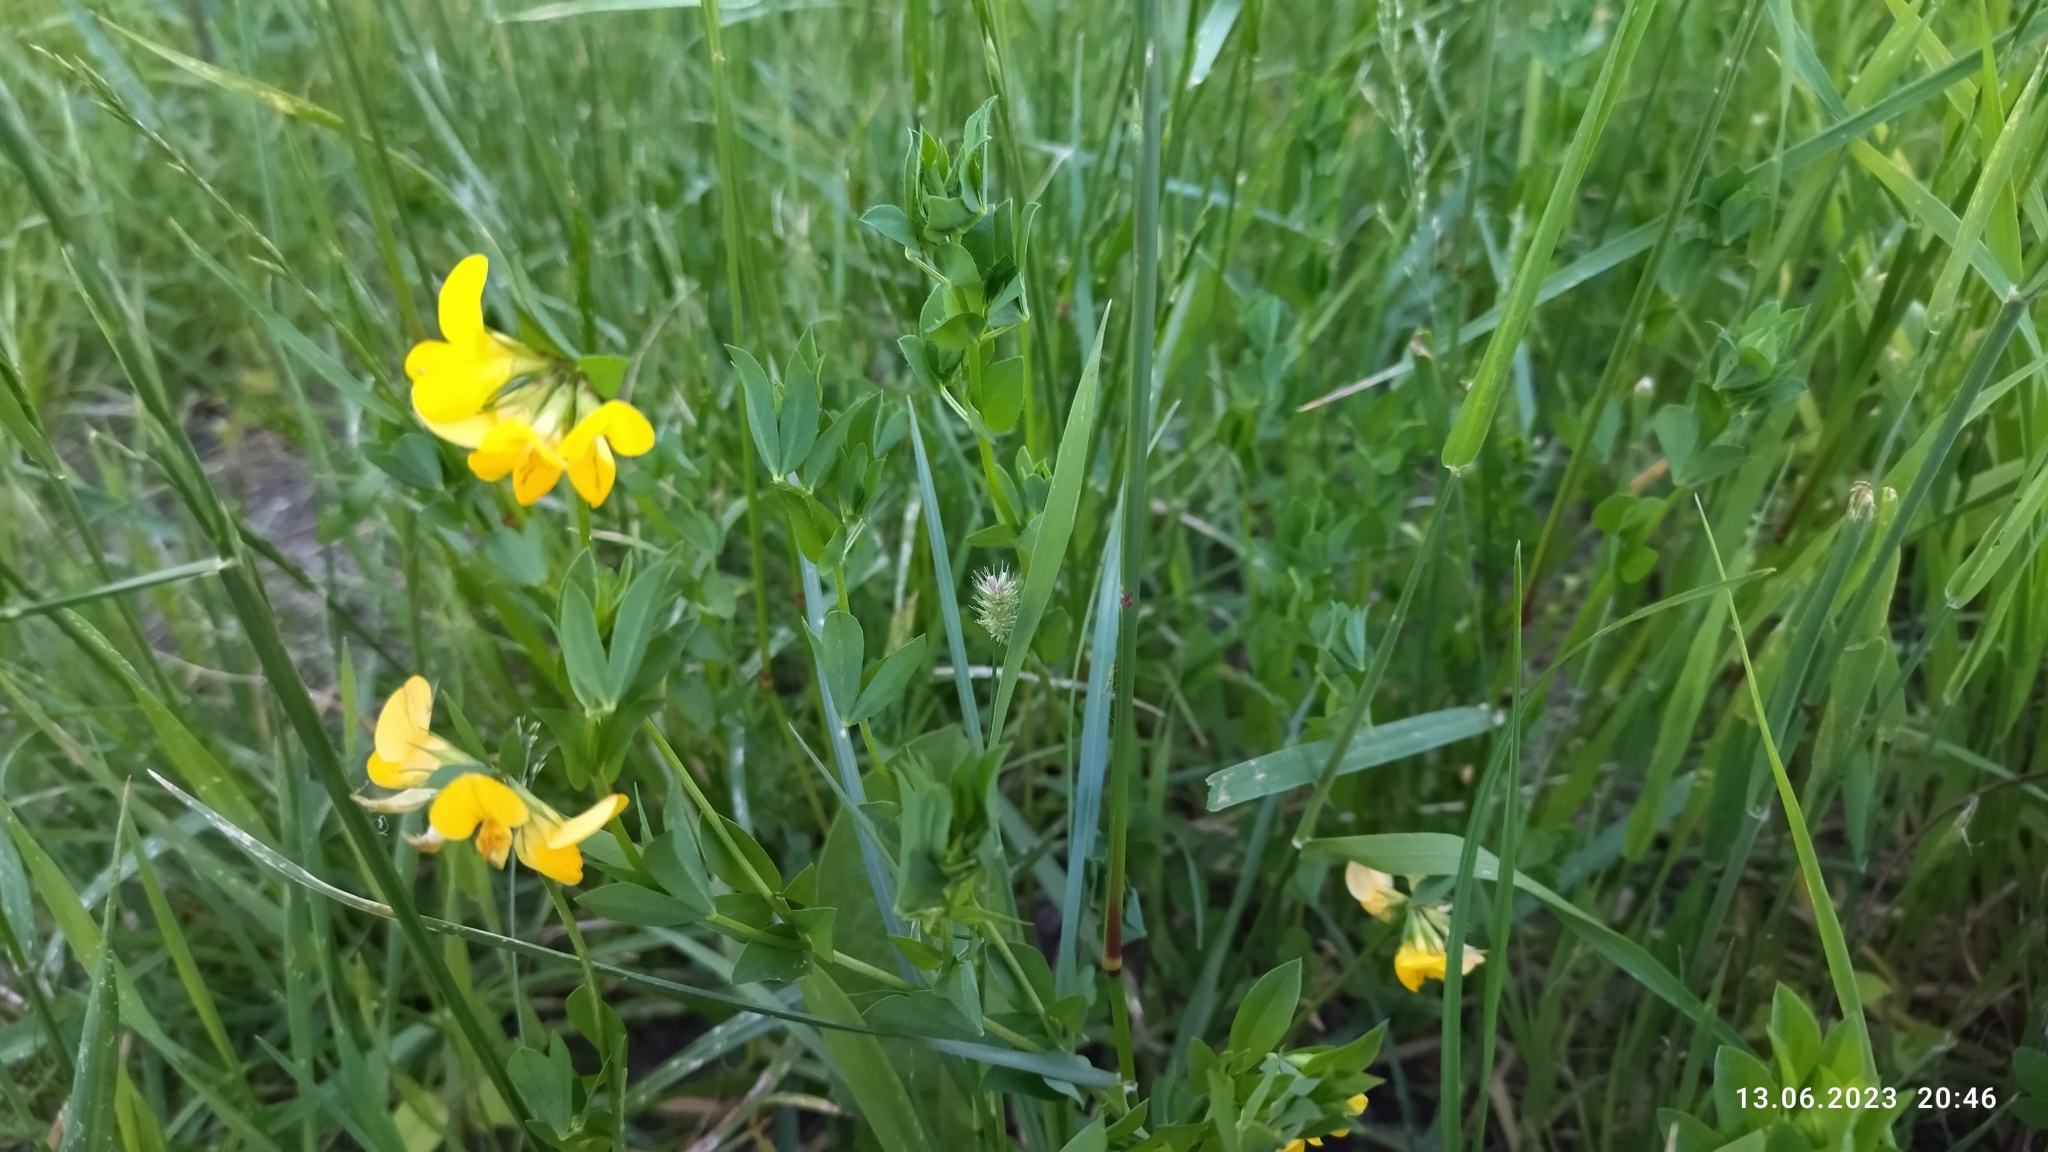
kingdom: Plantae
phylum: Tracheophyta
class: Magnoliopsida
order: Fabales
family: Fabaceae
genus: Lotus
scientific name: Lotus corniculatus
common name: Common bird's-foot-trefoil
